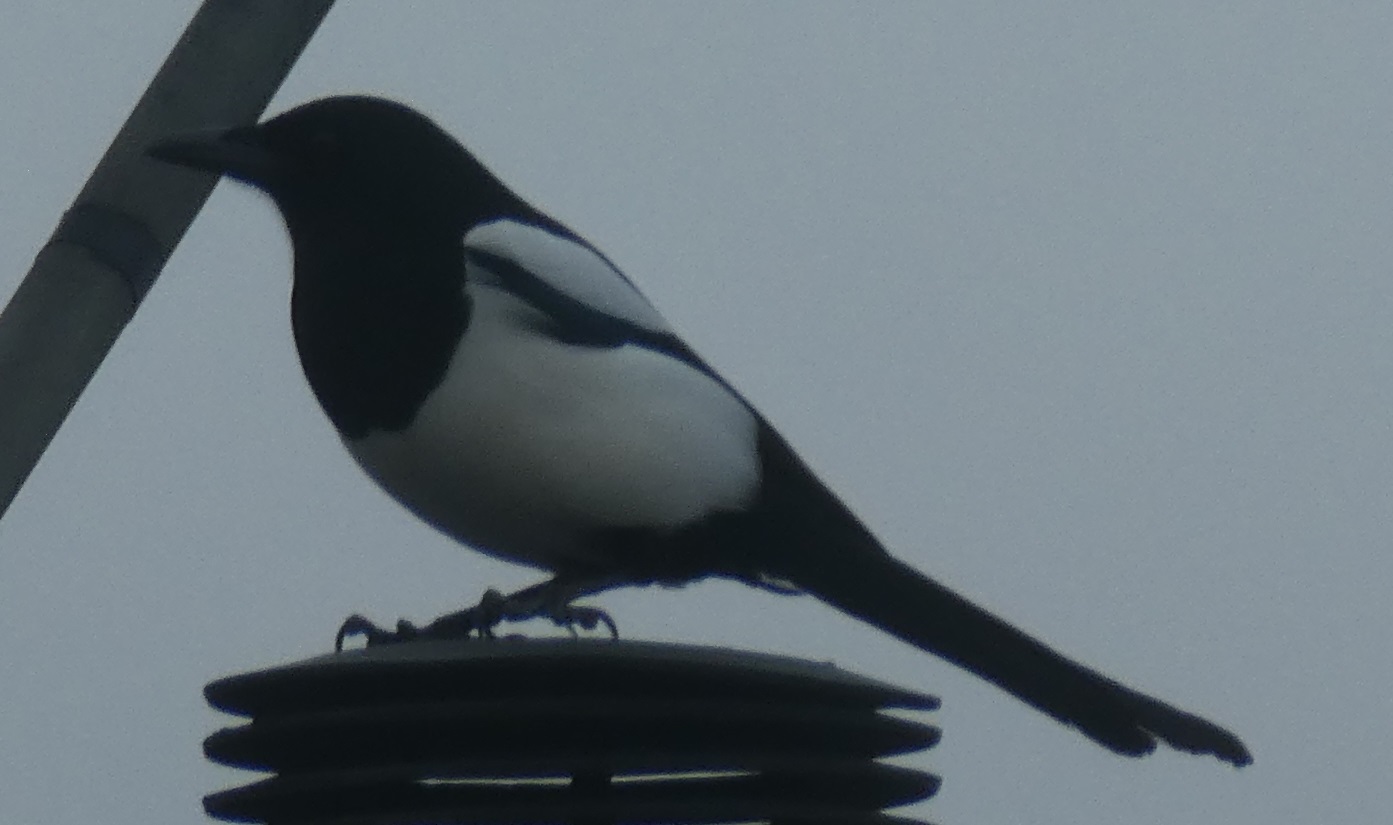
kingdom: Animalia
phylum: Chordata
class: Aves
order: Passeriformes
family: Corvidae
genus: Pica
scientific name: Pica pica
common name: Eurasian magpie
